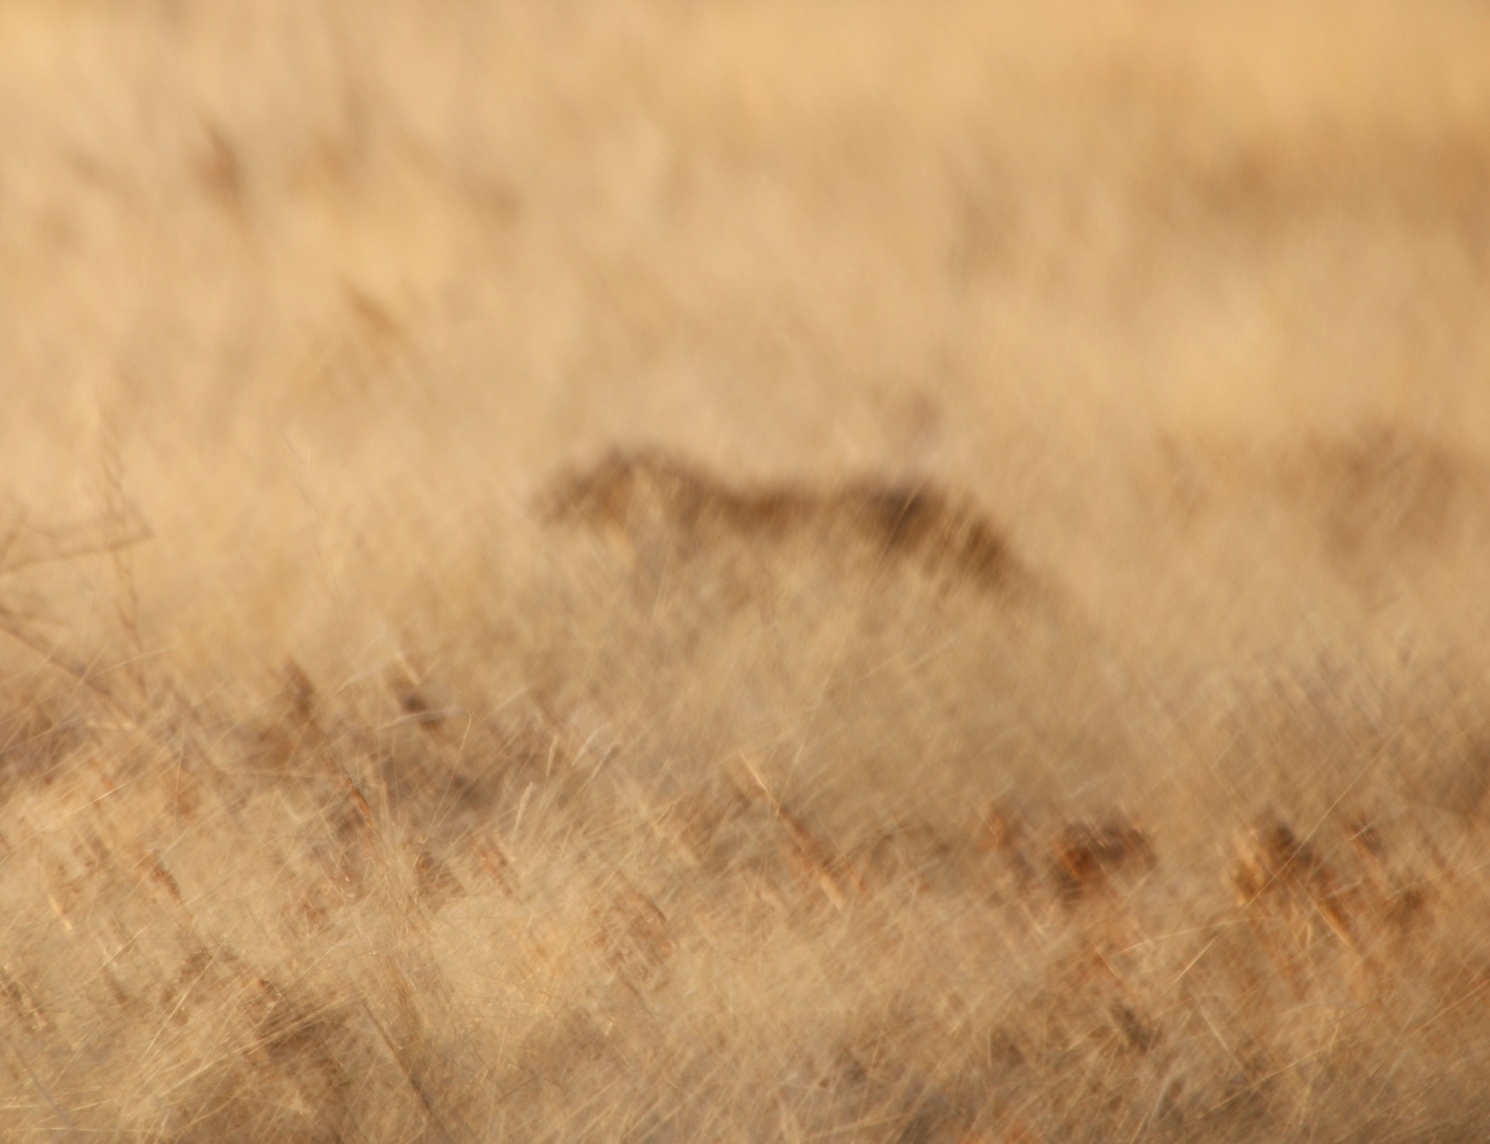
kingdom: Animalia
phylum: Chordata
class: Mammalia
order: Carnivora
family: Mustelidae
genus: Mellivora
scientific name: Mellivora capensis
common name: Honey badger
